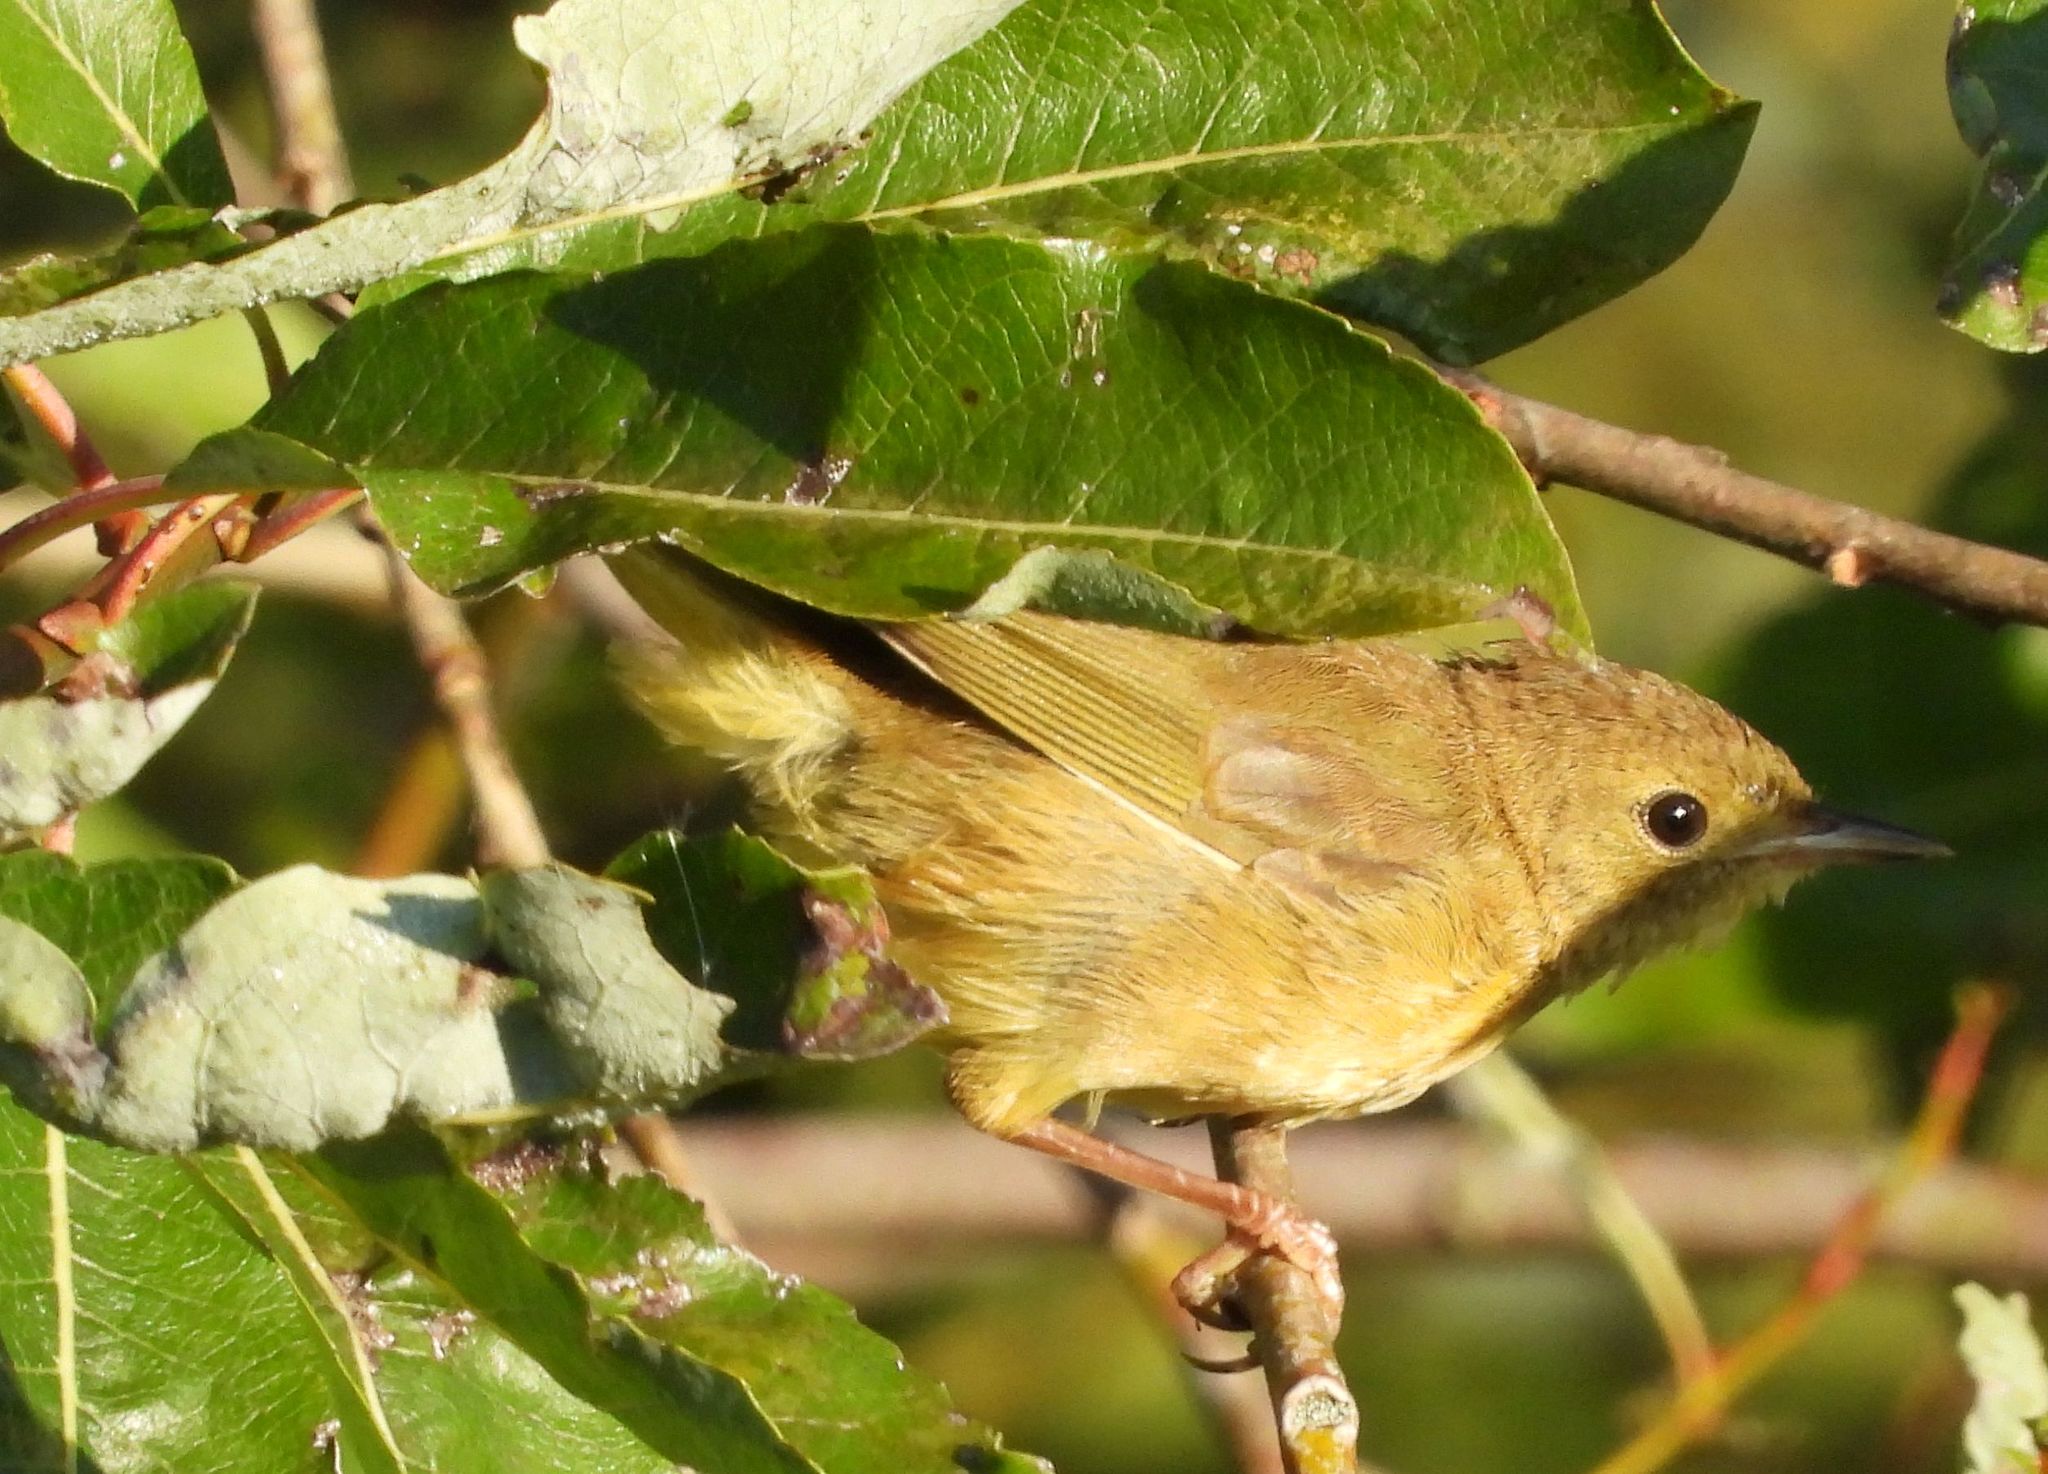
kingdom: Animalia
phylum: Chordata
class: Aves
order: Passeriformes
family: Parulidae
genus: Geothlypis
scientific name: Geothlypis trichas
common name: Common yellowthroat
